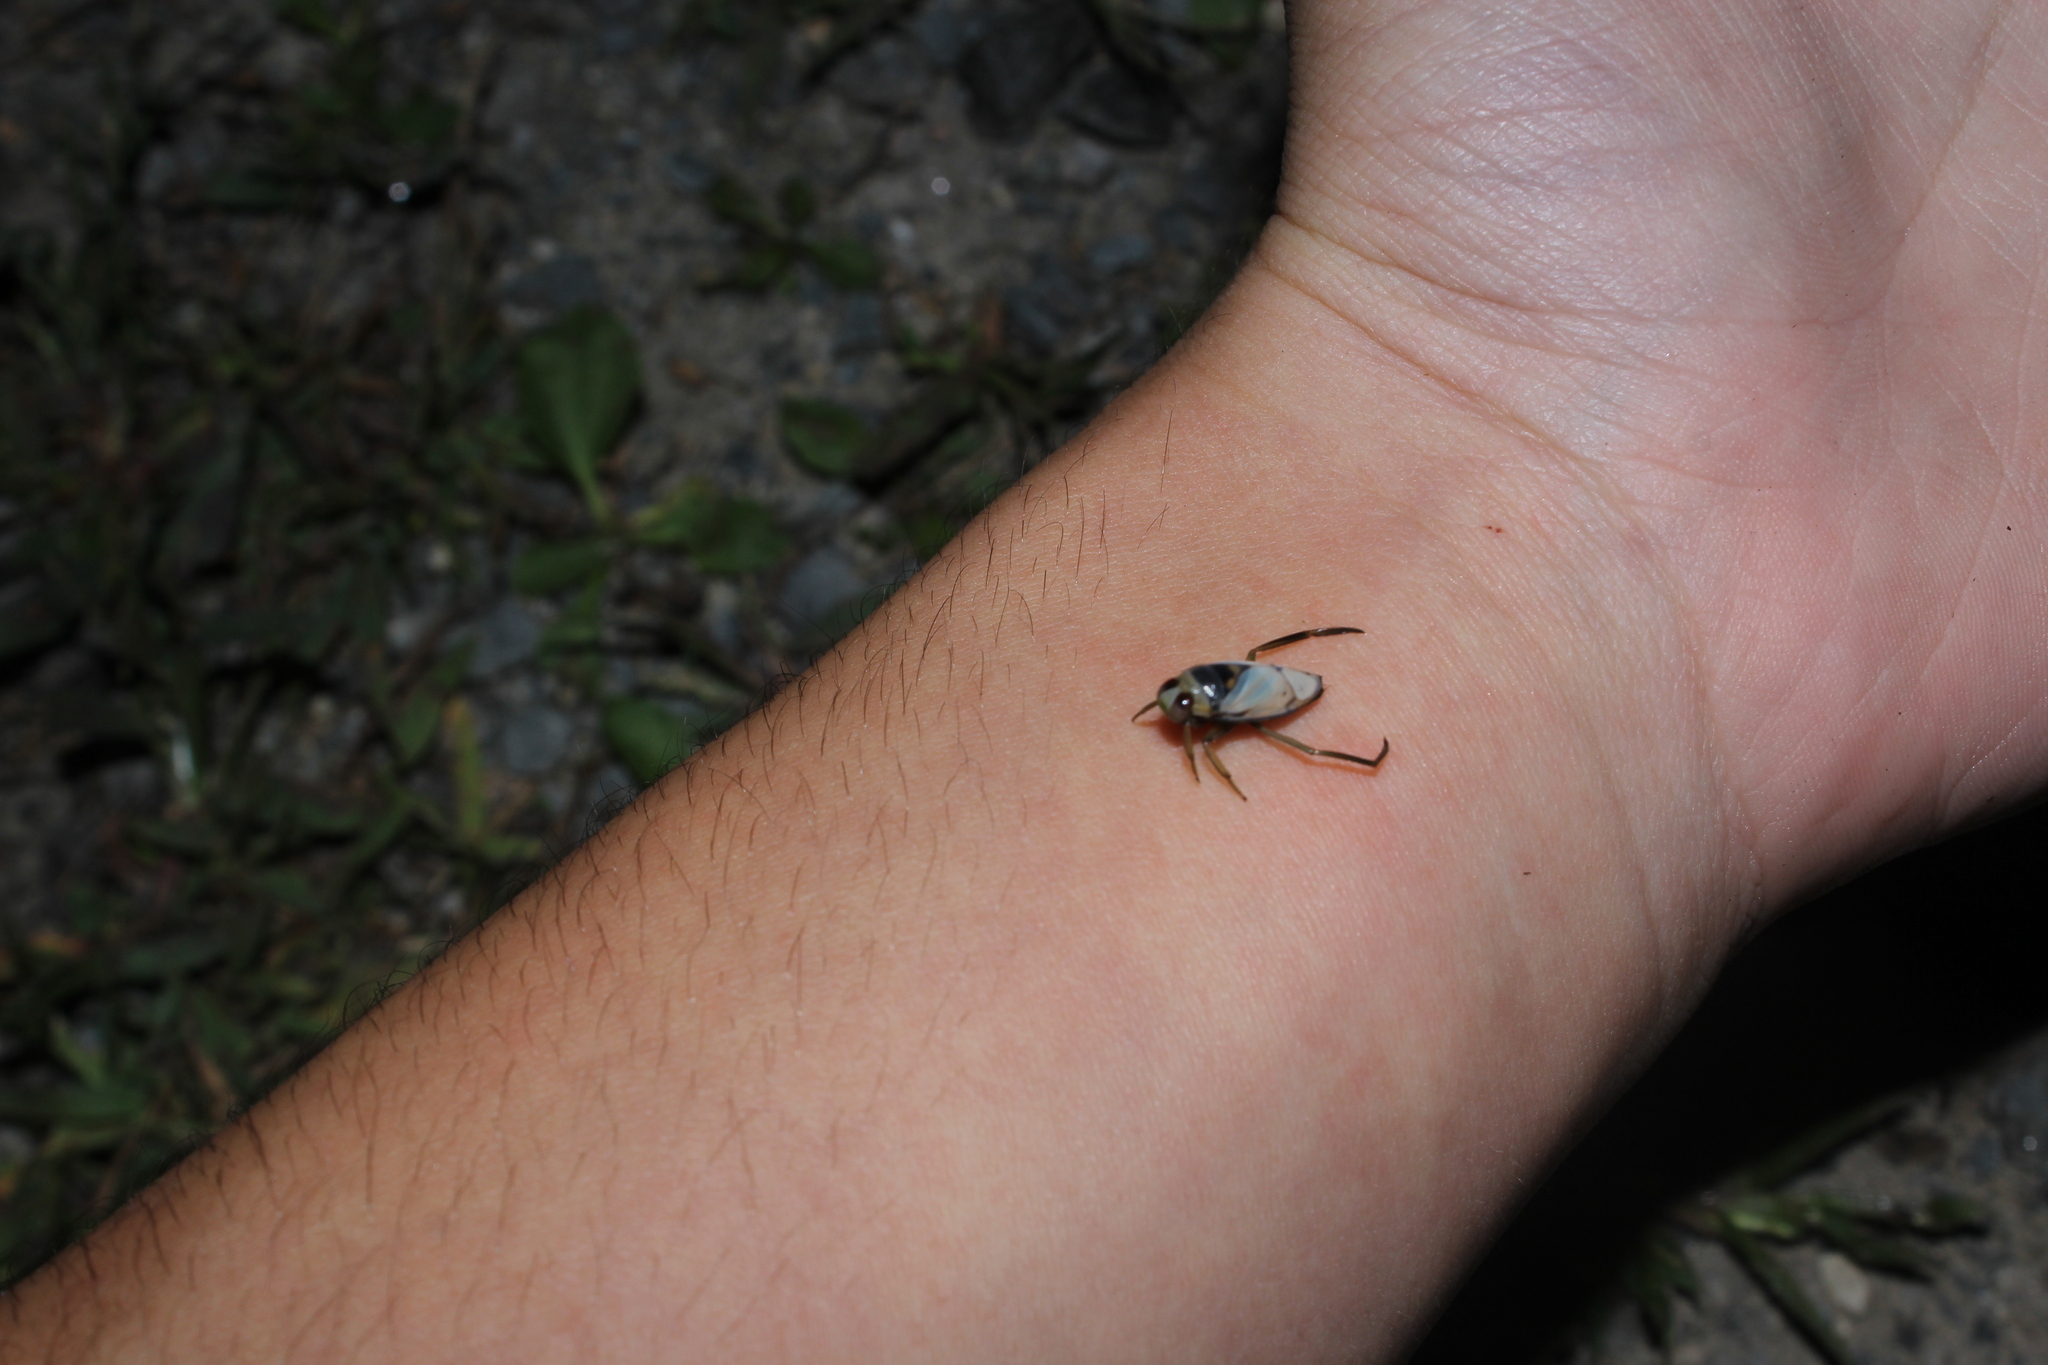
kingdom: Animalia
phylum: Arthropoda
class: Insecta
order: Hemiptera
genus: Paranecta
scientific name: Paranecta
